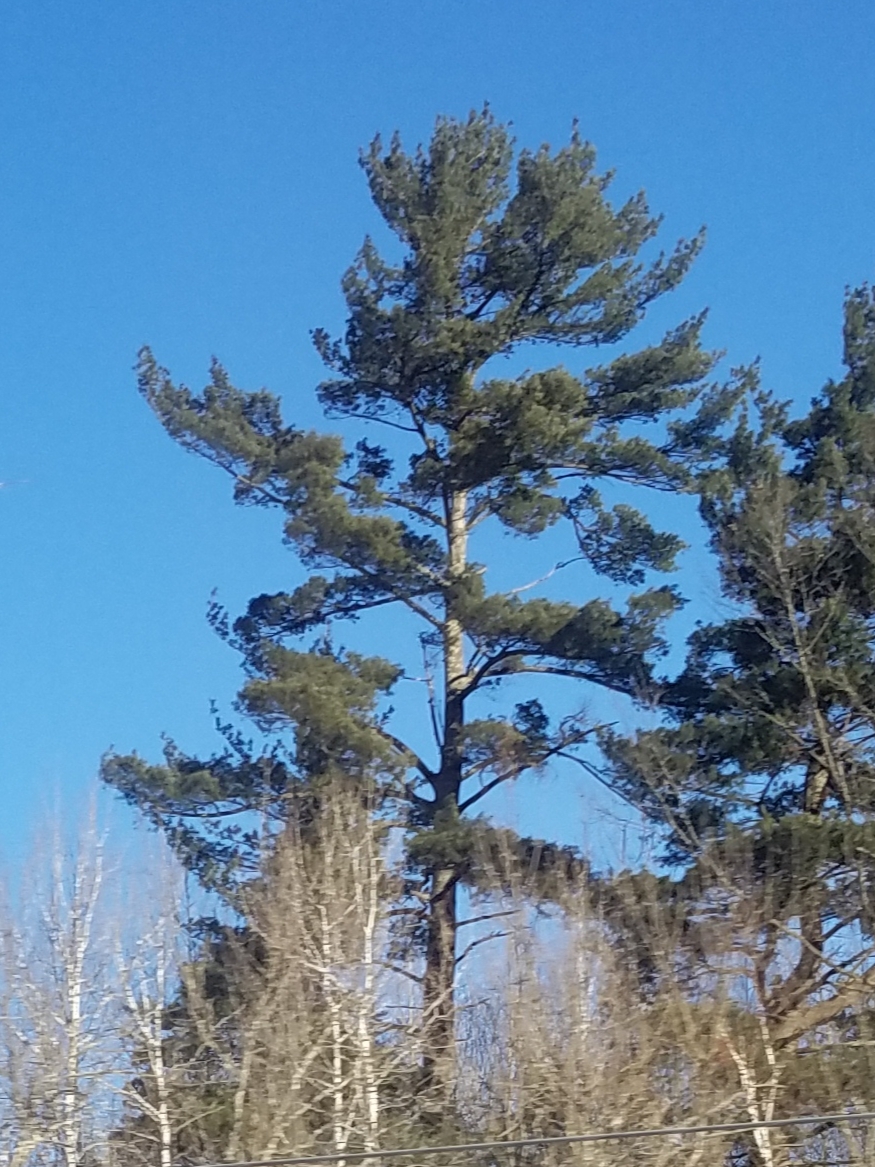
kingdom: Plantae
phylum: Tracheophyta
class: Pinopsida
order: Pinales
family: Pinaceae
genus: Pinus
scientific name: Pinus strobus
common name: Weymouth pine
